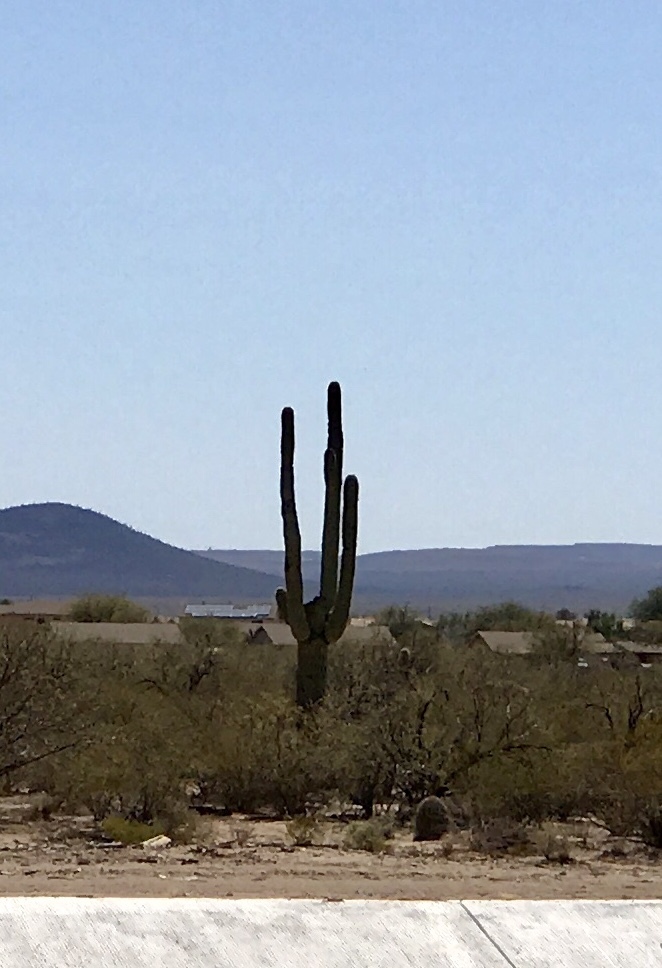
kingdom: Plantae
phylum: Tracheophyta
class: Magnoliopsida
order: Caryophyllales
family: Cactaceae
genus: Carnegiea
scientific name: Carnegiea gigantea
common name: Saguaro
